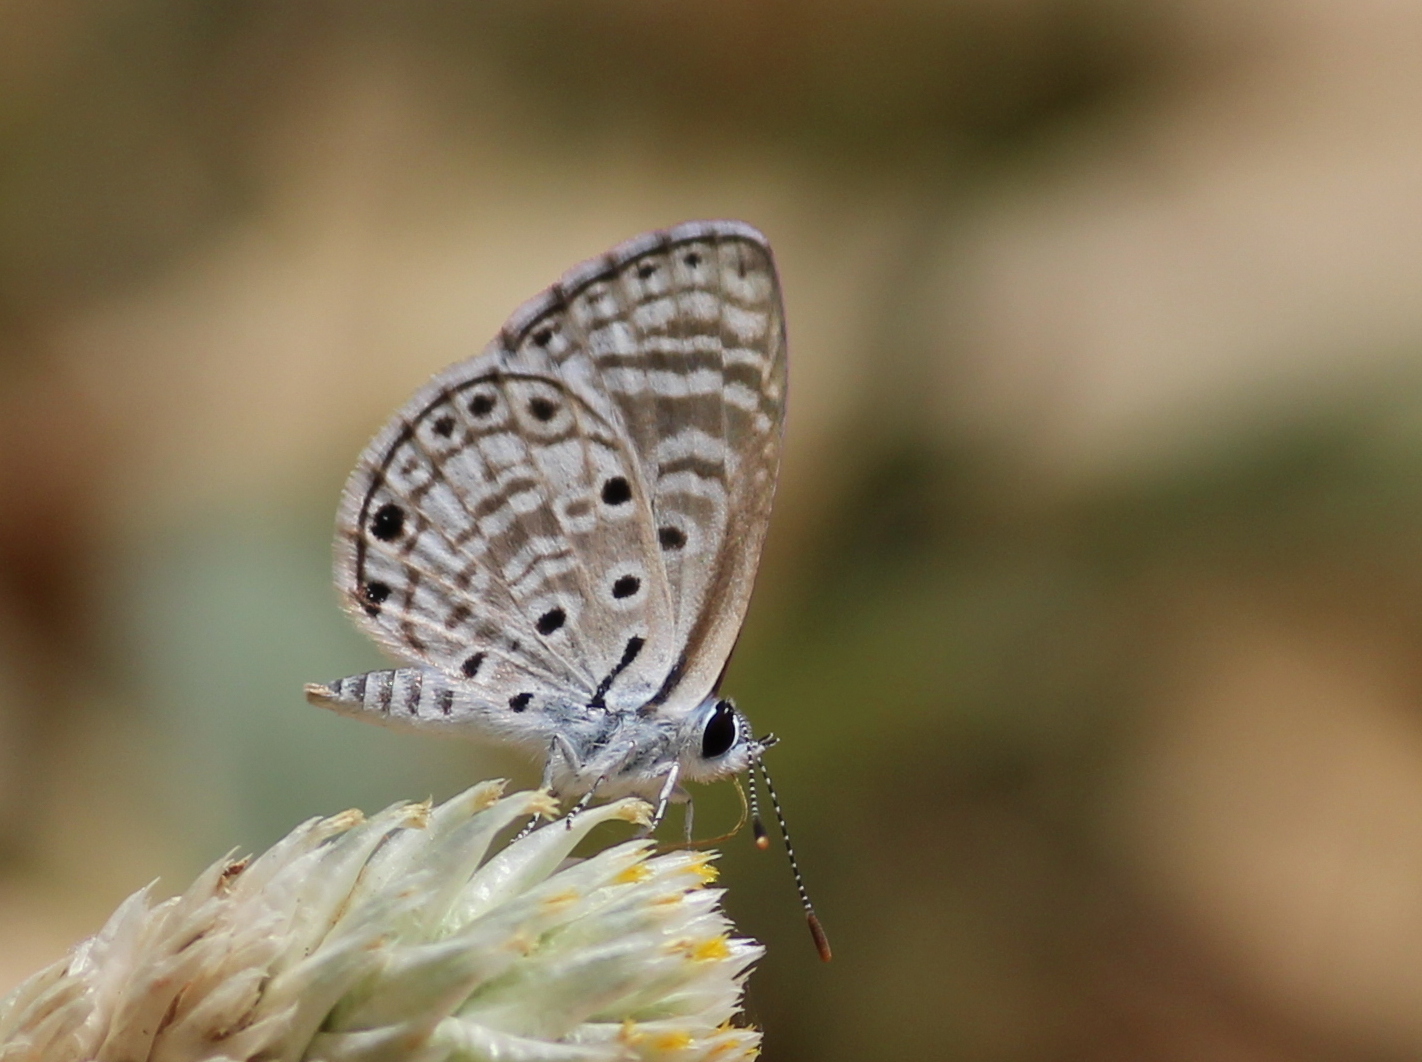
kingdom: Animalia
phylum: Arthropoda
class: Insecta
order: Lepidoptera
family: Lycaenidae
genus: Azanus
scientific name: Azanus jesous
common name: African babul blue
